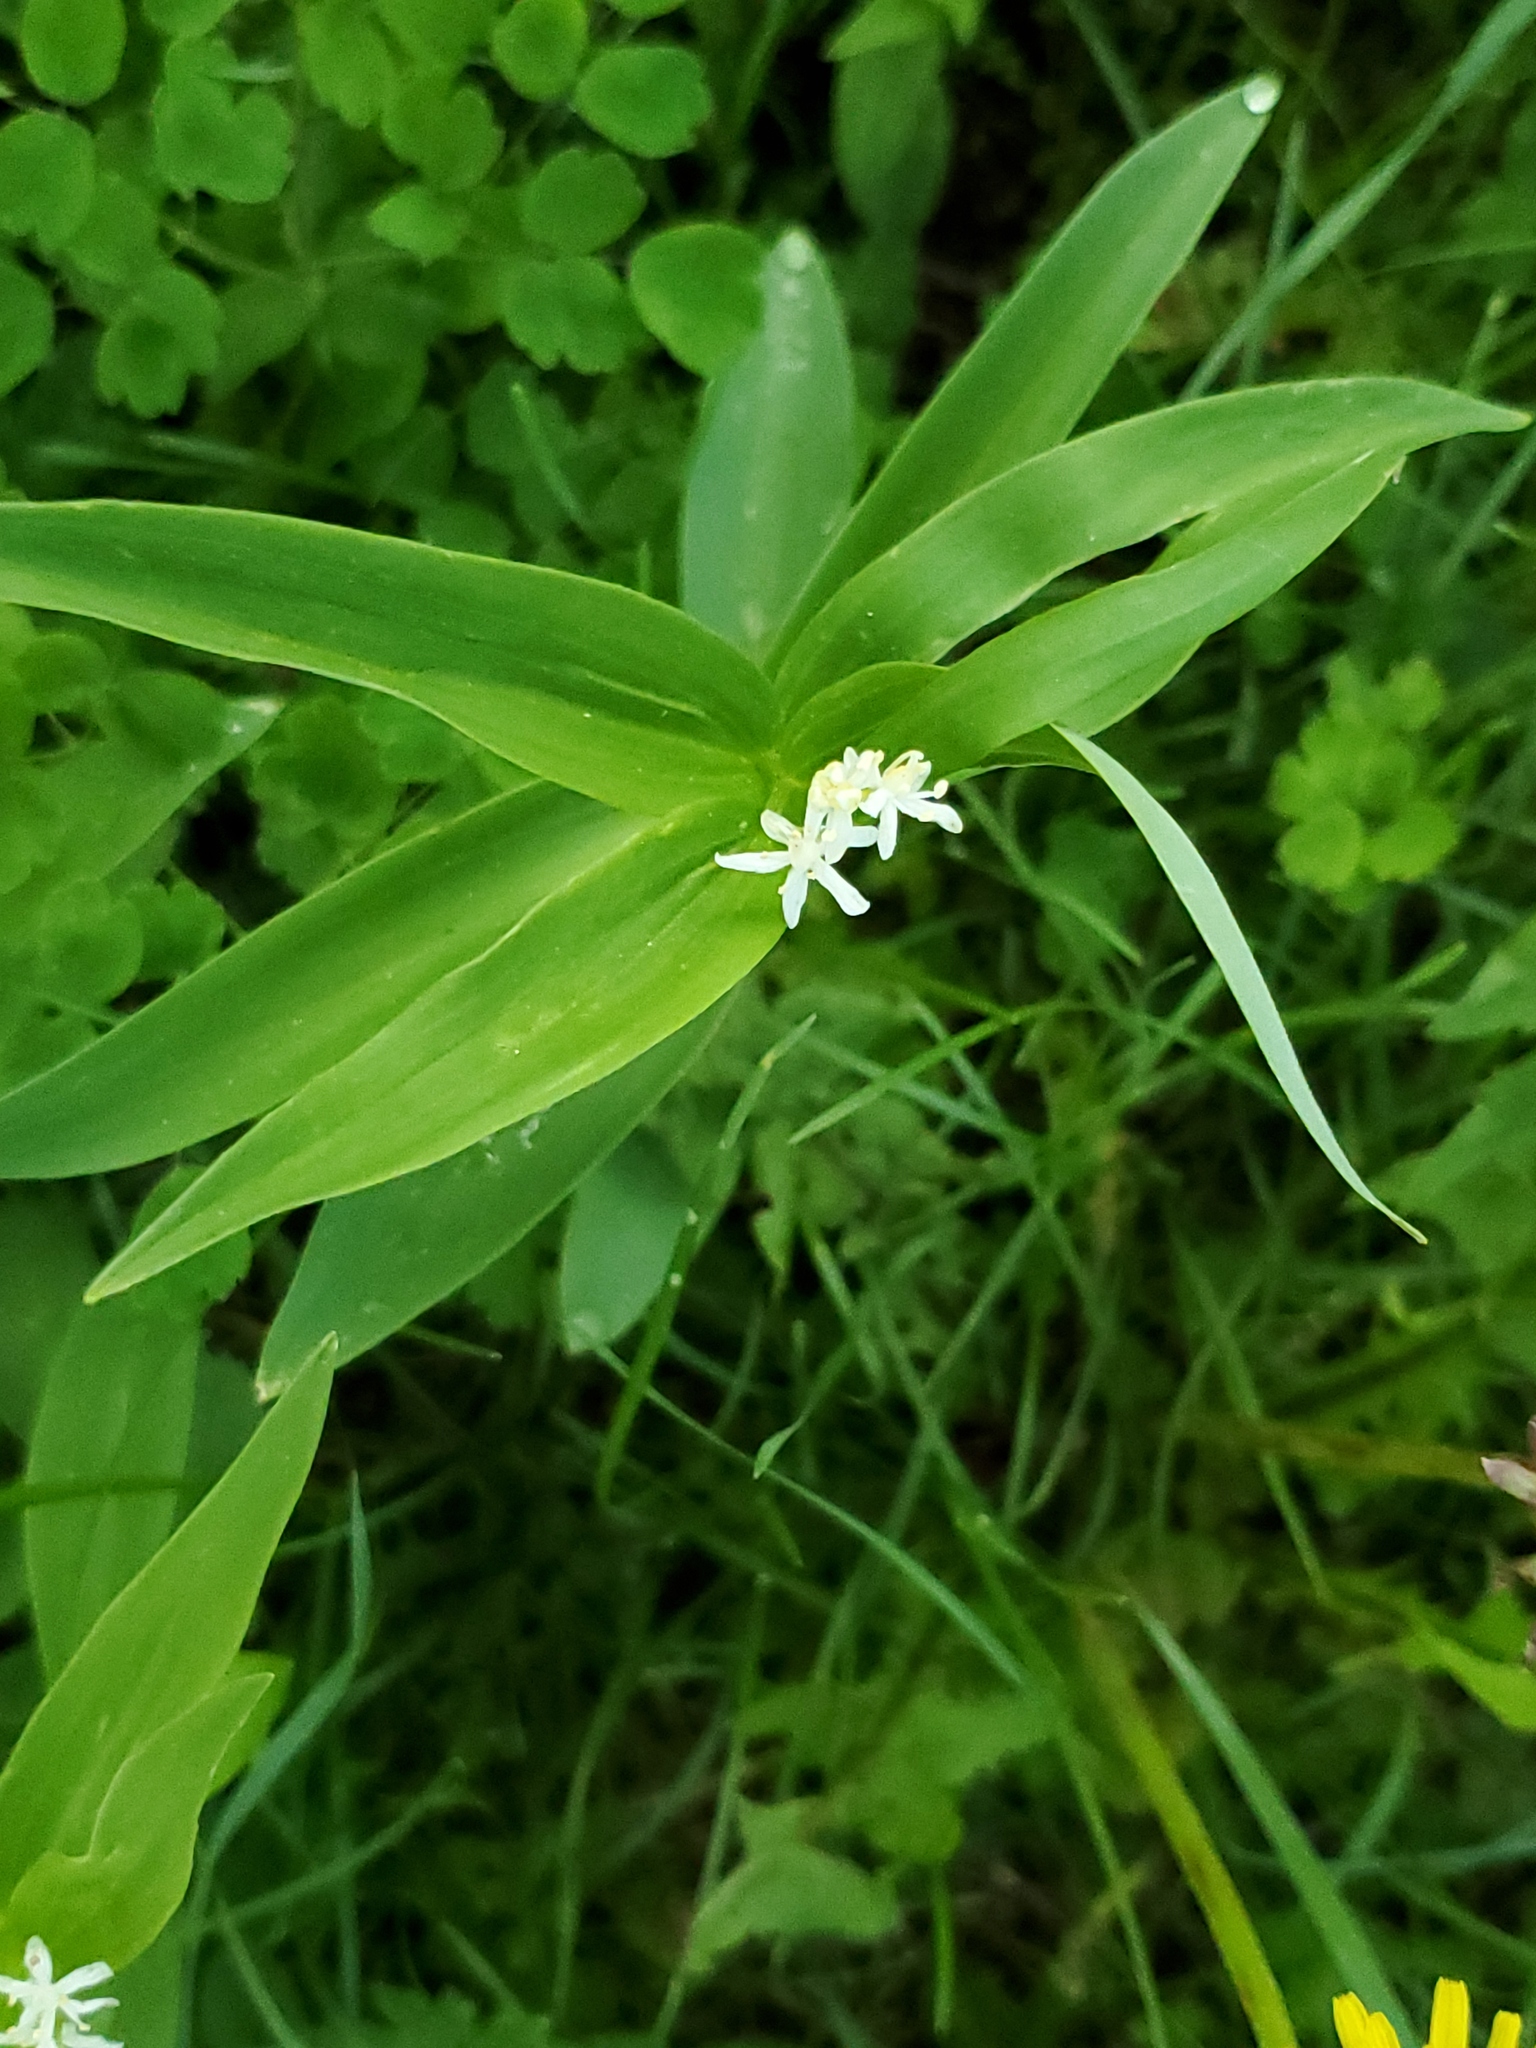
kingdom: Plantae
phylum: Tracheophyta
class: Liliopsida
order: Asparagales
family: Asparagaceae
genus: Maianthemum
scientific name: Maianthemum stellatum
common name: Little false solomon's seal
